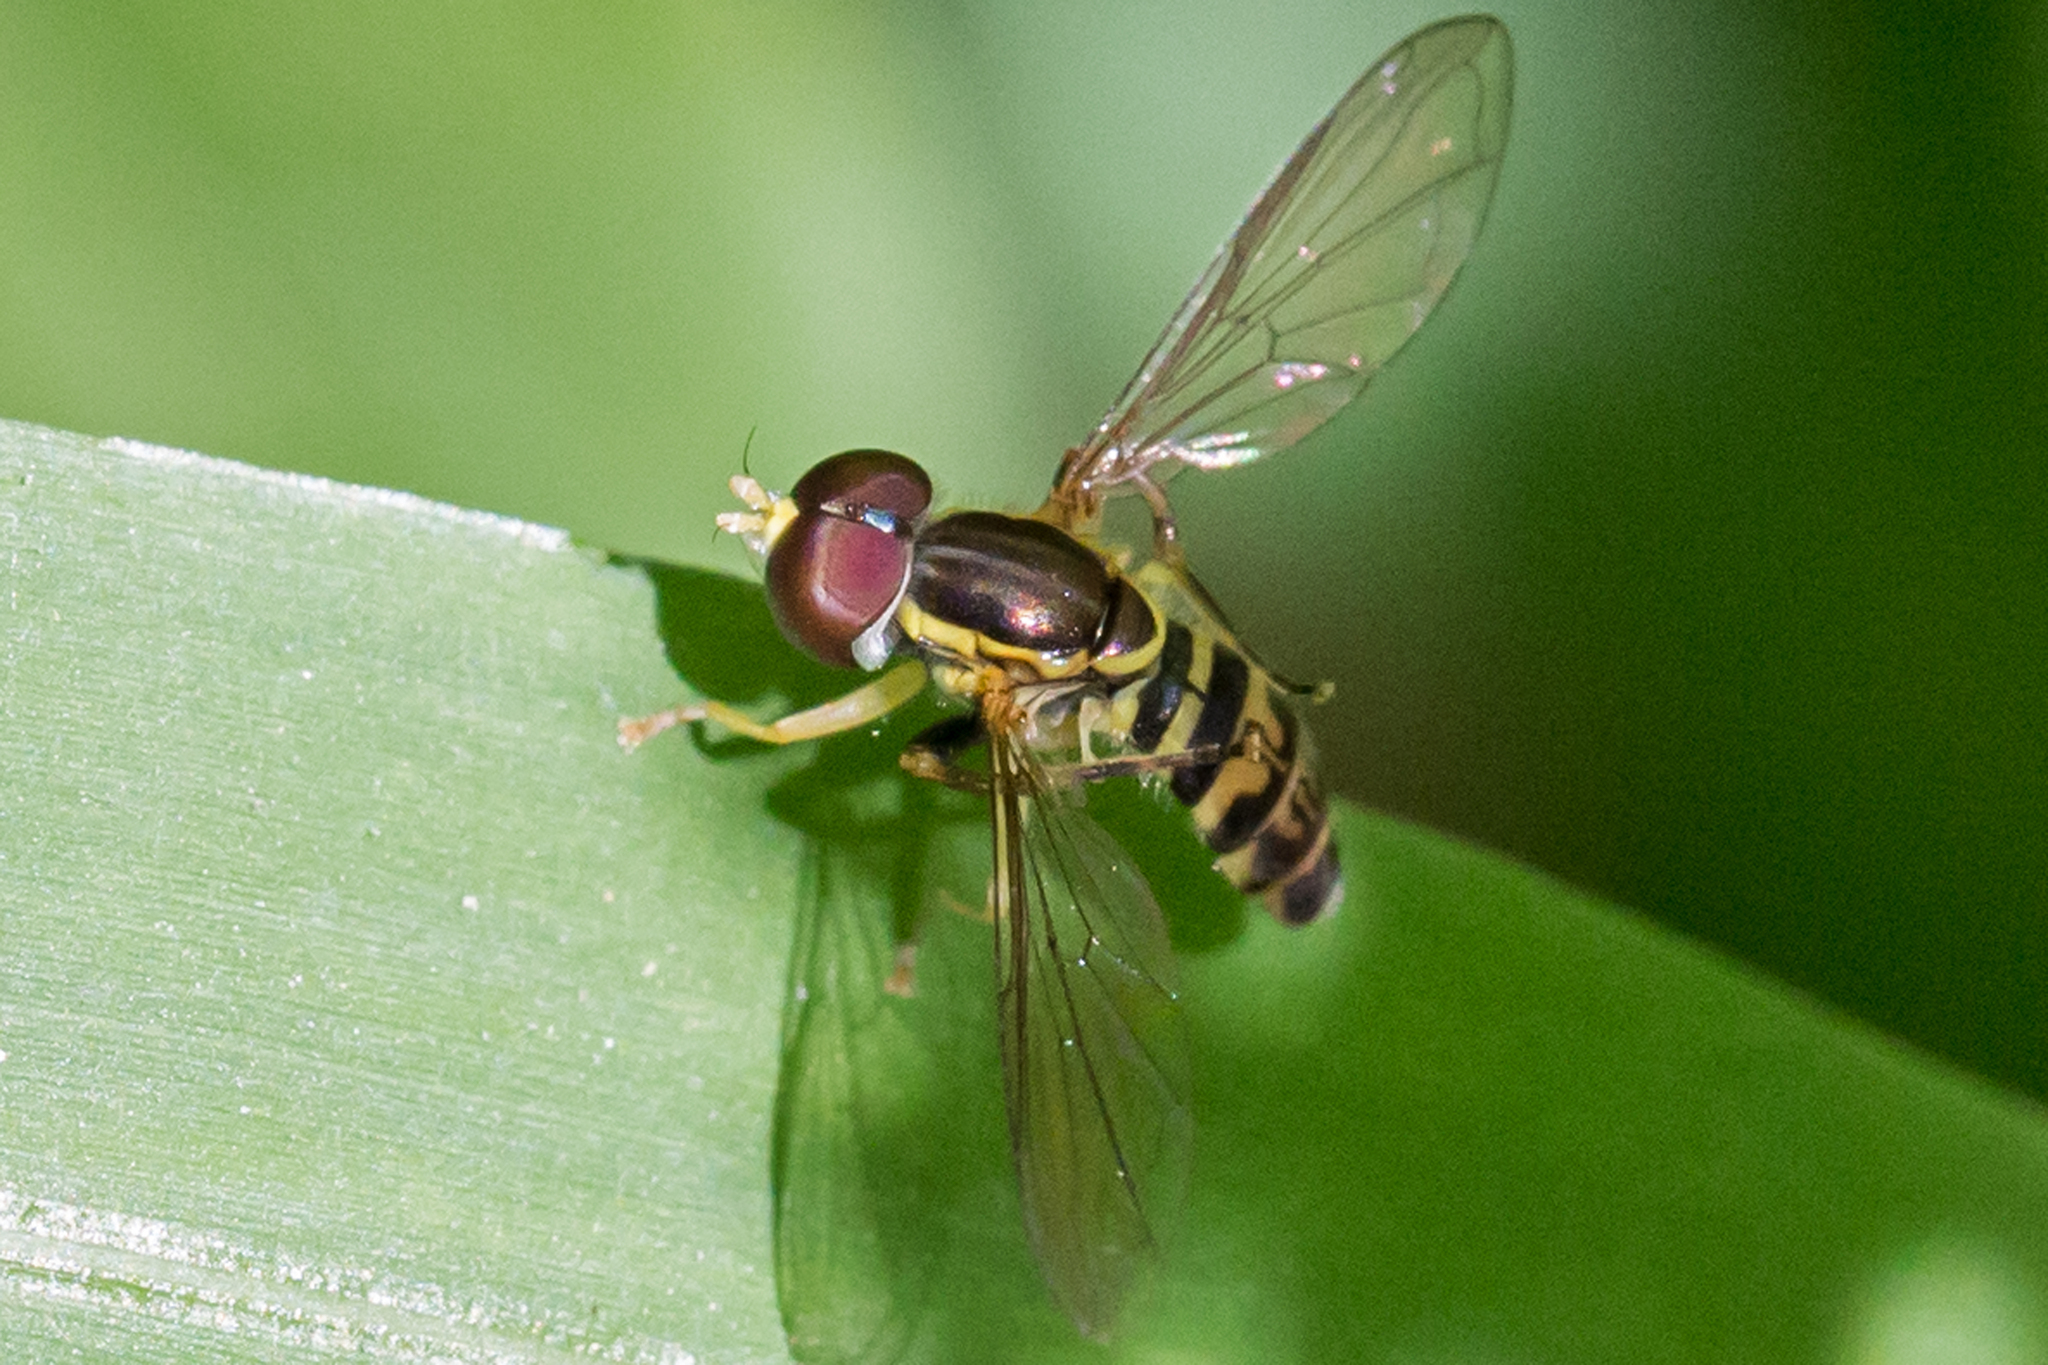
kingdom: Animalia
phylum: Arthropoda
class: Insecta
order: Diptera
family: Syrphidae
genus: Toxomerus
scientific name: Toxomerus geminatus
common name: Eastern calligrapher
